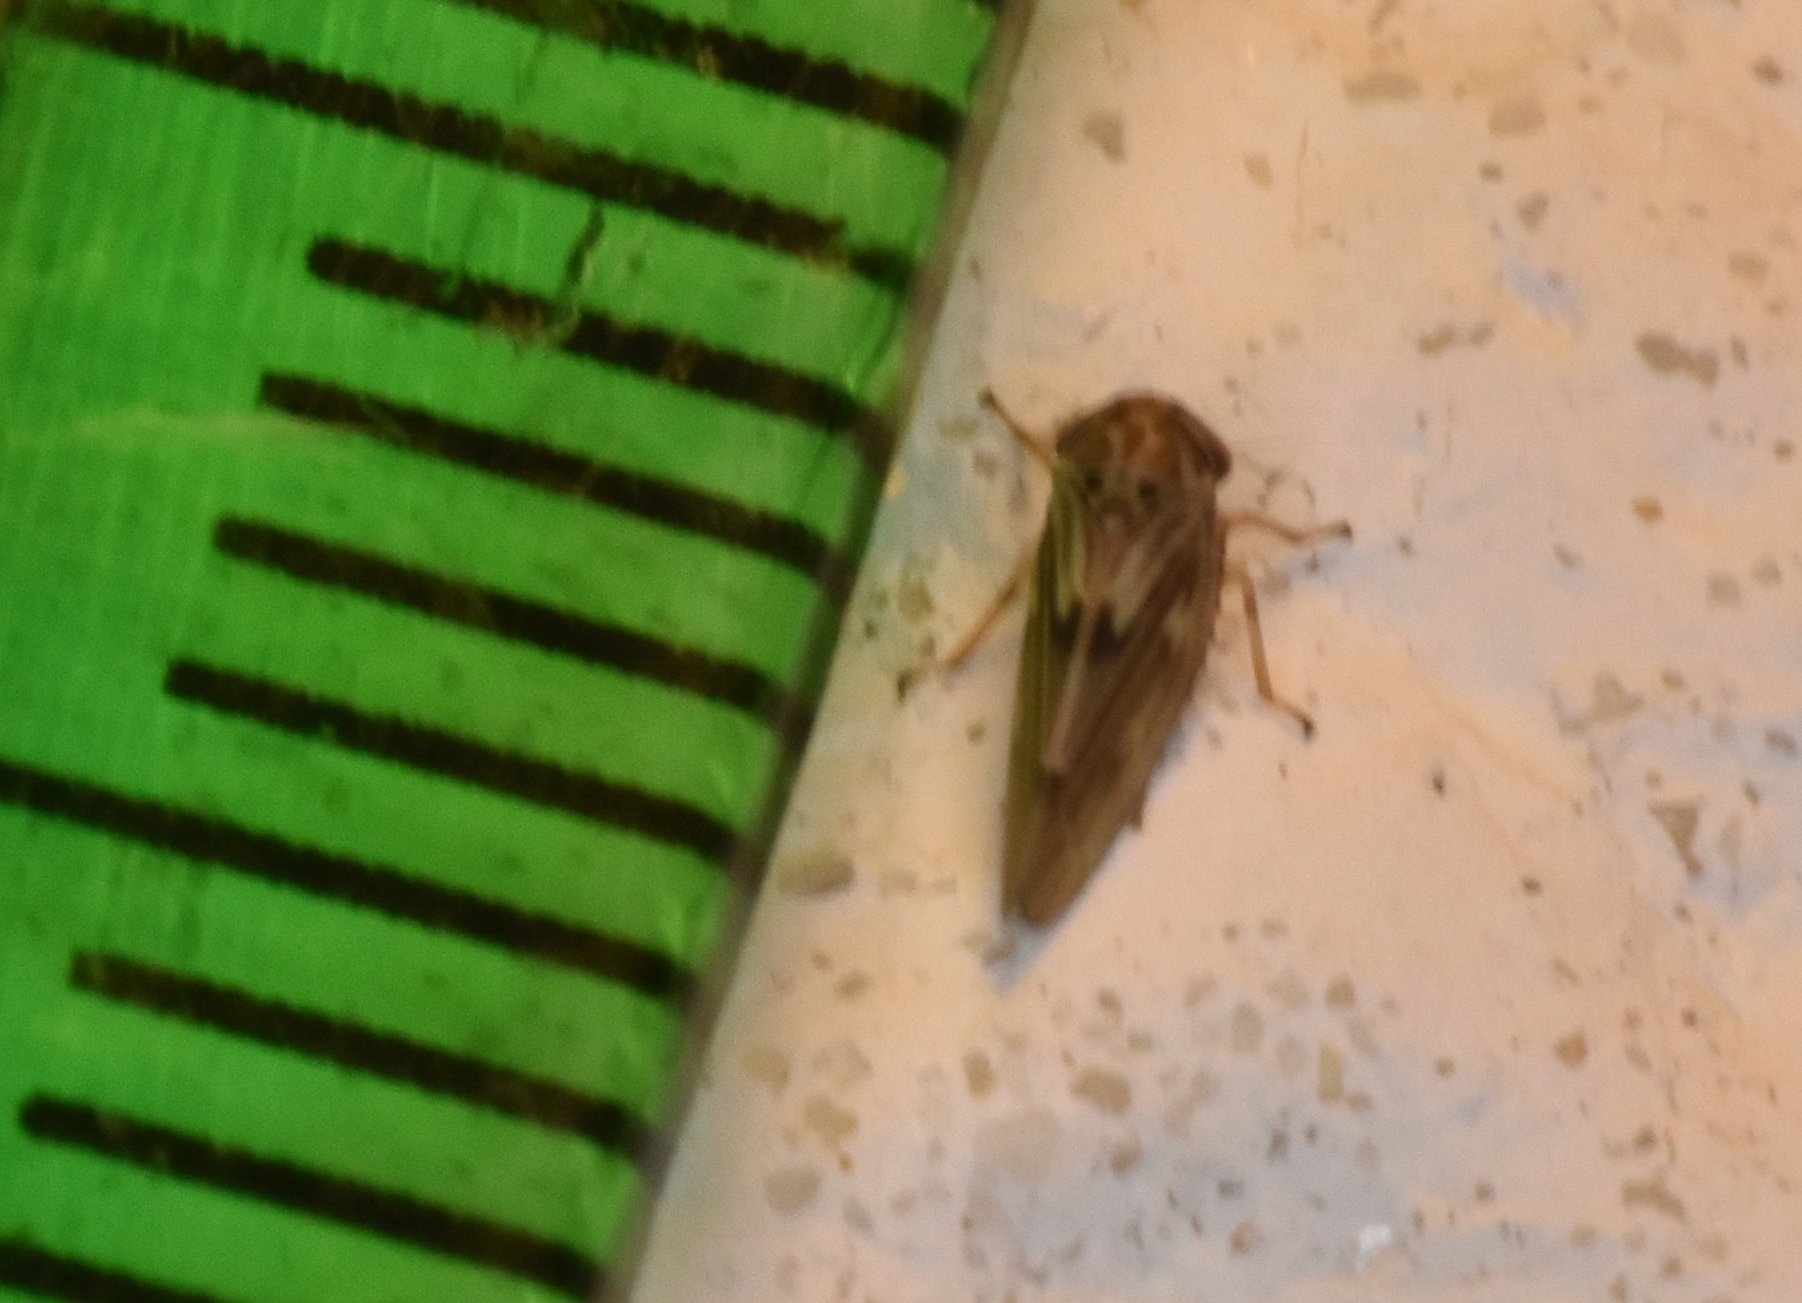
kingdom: Animalia
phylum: Arthropoda
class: Insecta
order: Hemiptera
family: Cicadellidae
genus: Agallia
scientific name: Agallia albidula
